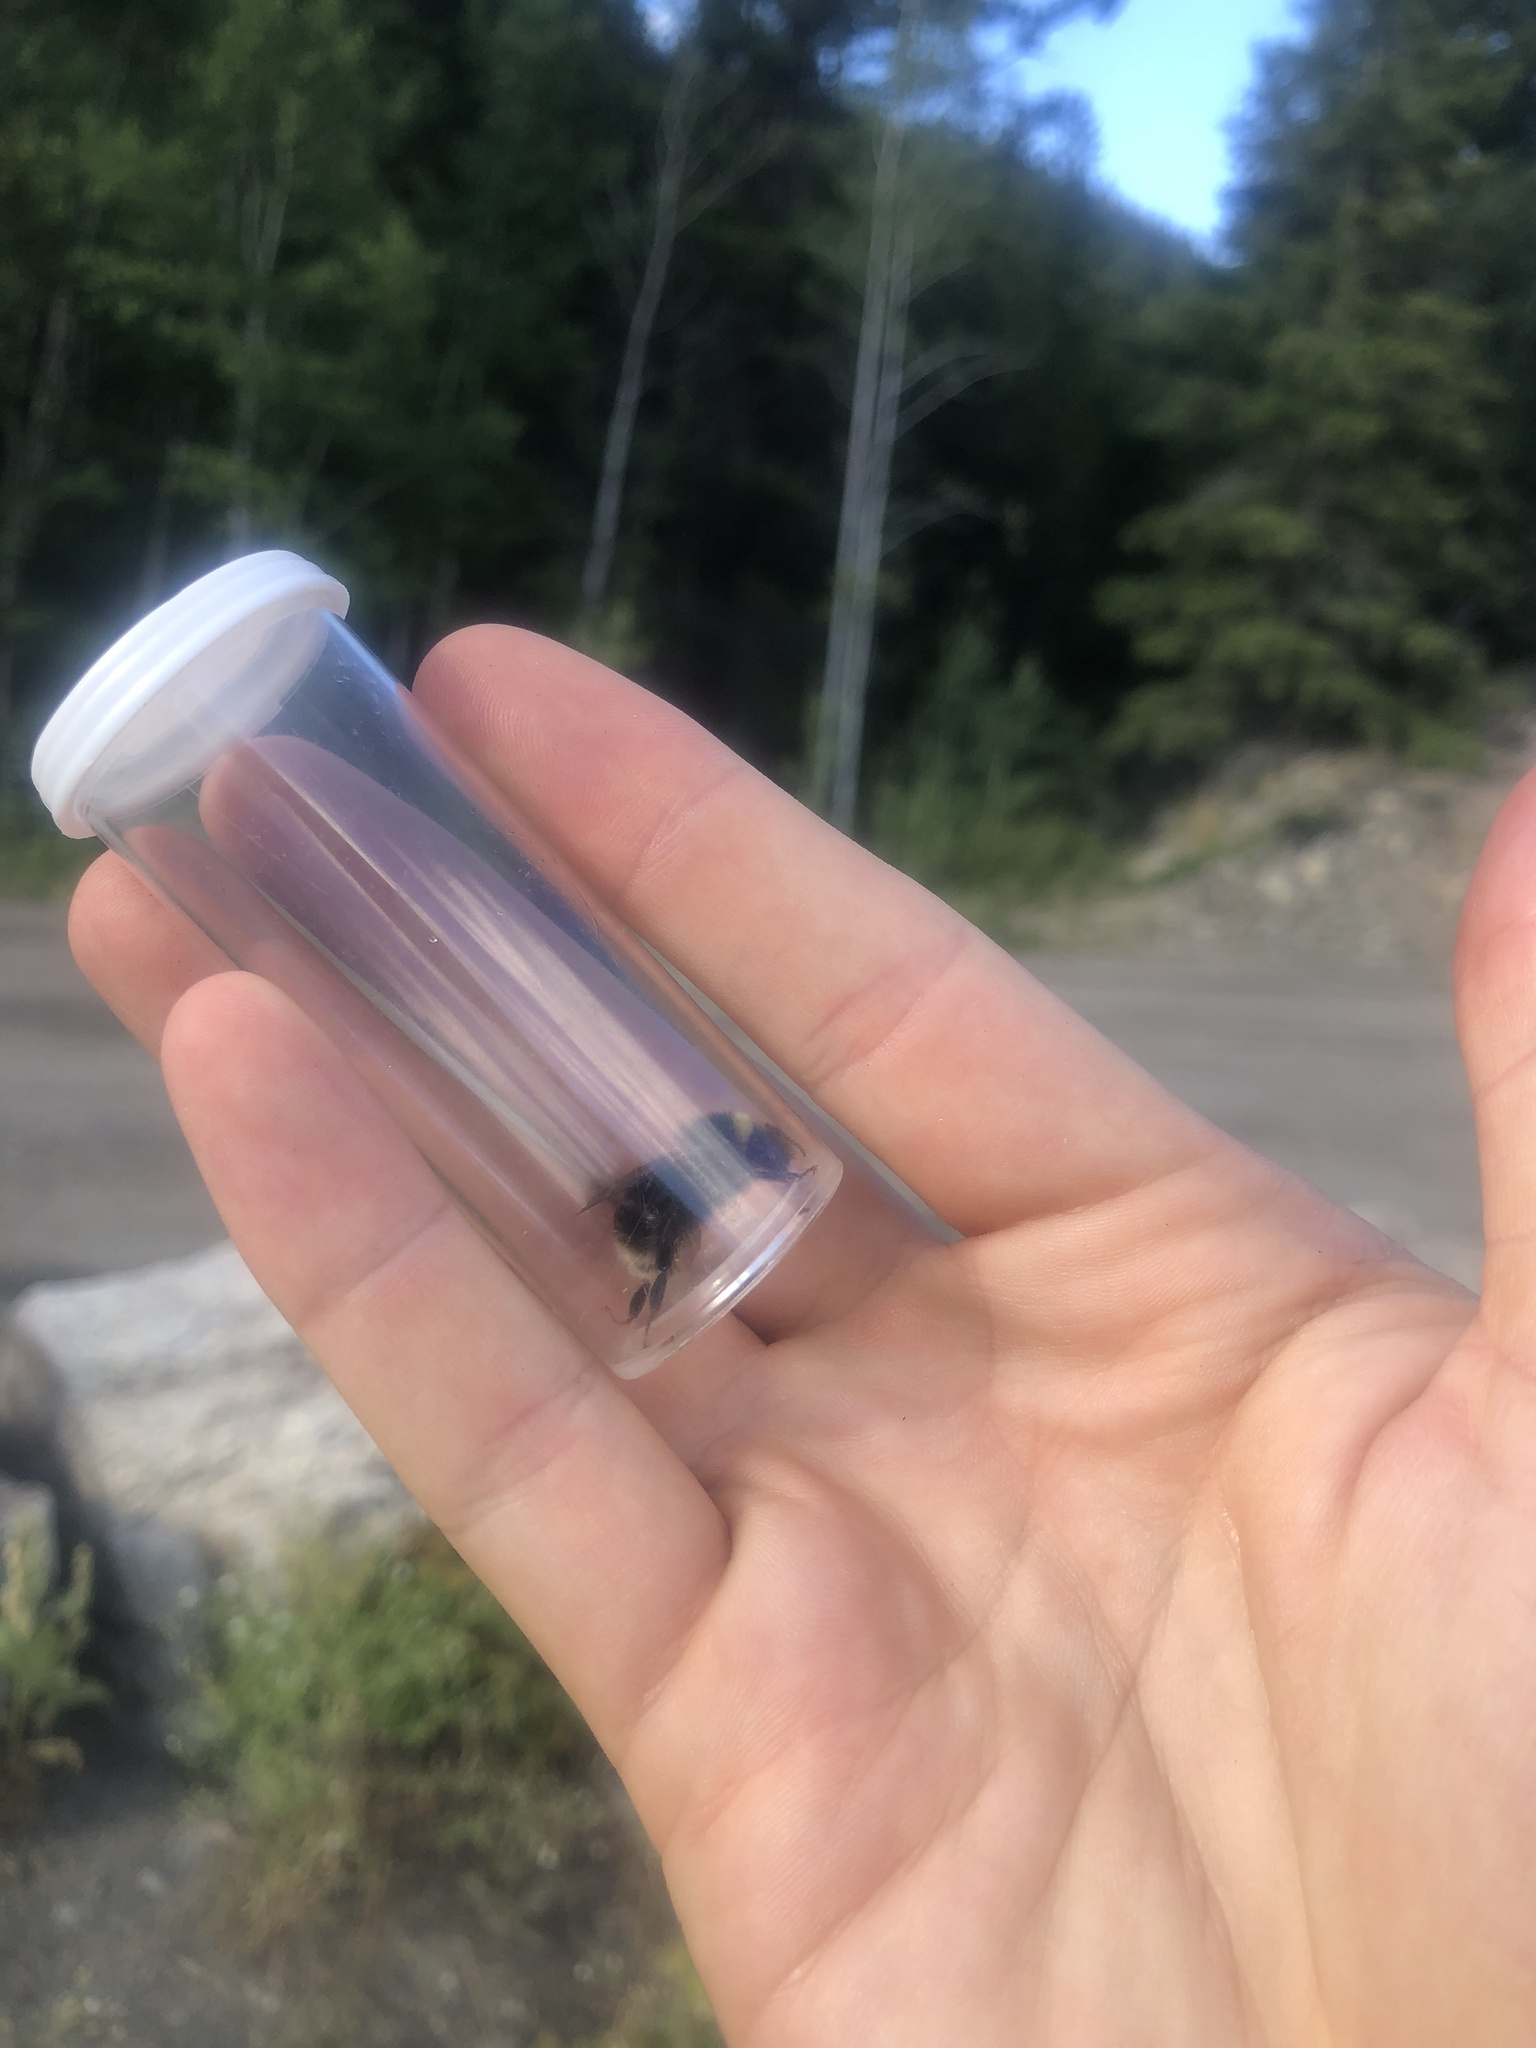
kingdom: Animalia
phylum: Arthropoda
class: Insecta
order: Hymenoptera
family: Apidae
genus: Bombus
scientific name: Bombus occidentalis
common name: Western bumble bee
